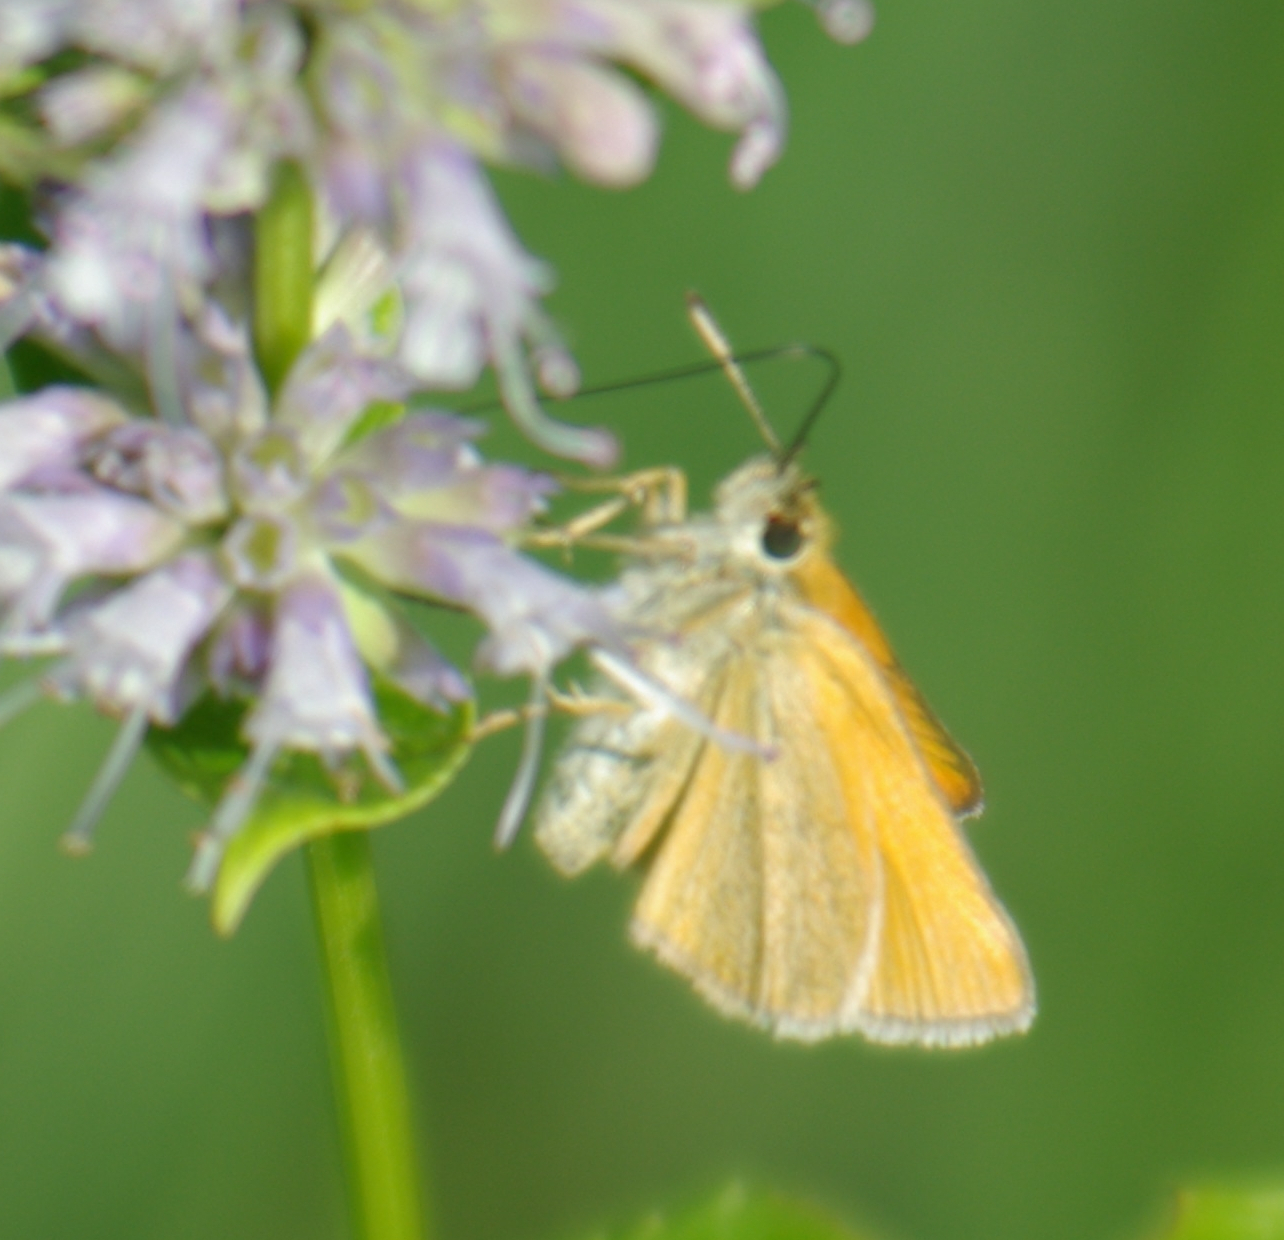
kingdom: Animalia
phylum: Arthropoda
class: Insecta
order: Lepidoptera
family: Hesperiidae
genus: Thymelicus
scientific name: Thymelicus lineola
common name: Essex skipper
